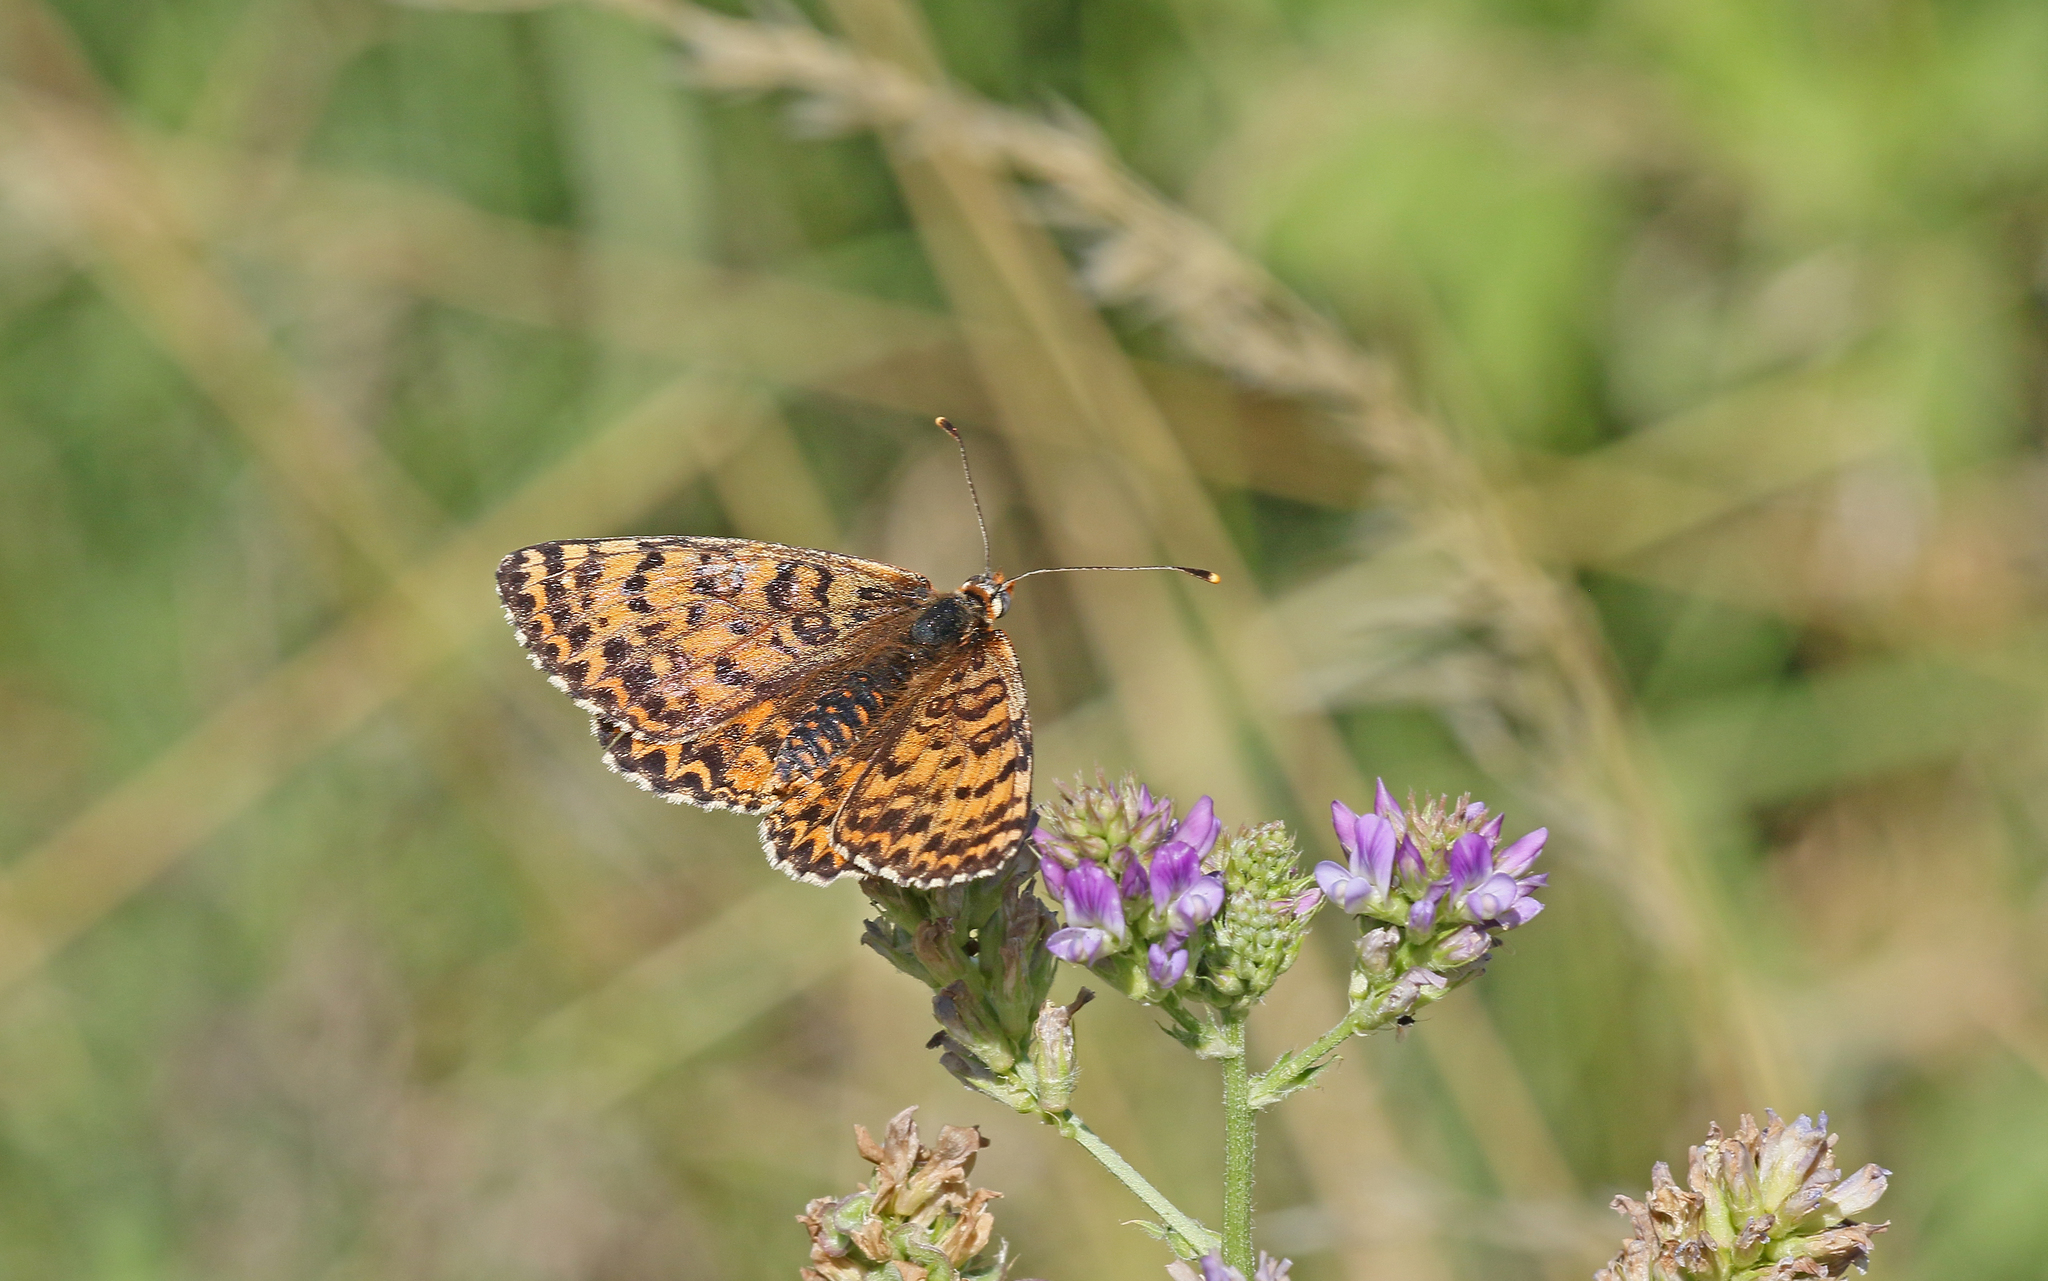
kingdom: Animalia
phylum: Arthropoda
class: Insecta
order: Lepidoptera
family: Nymphalidae
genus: Melitaea
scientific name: Melitaea didyma
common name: Spotted fritillary
